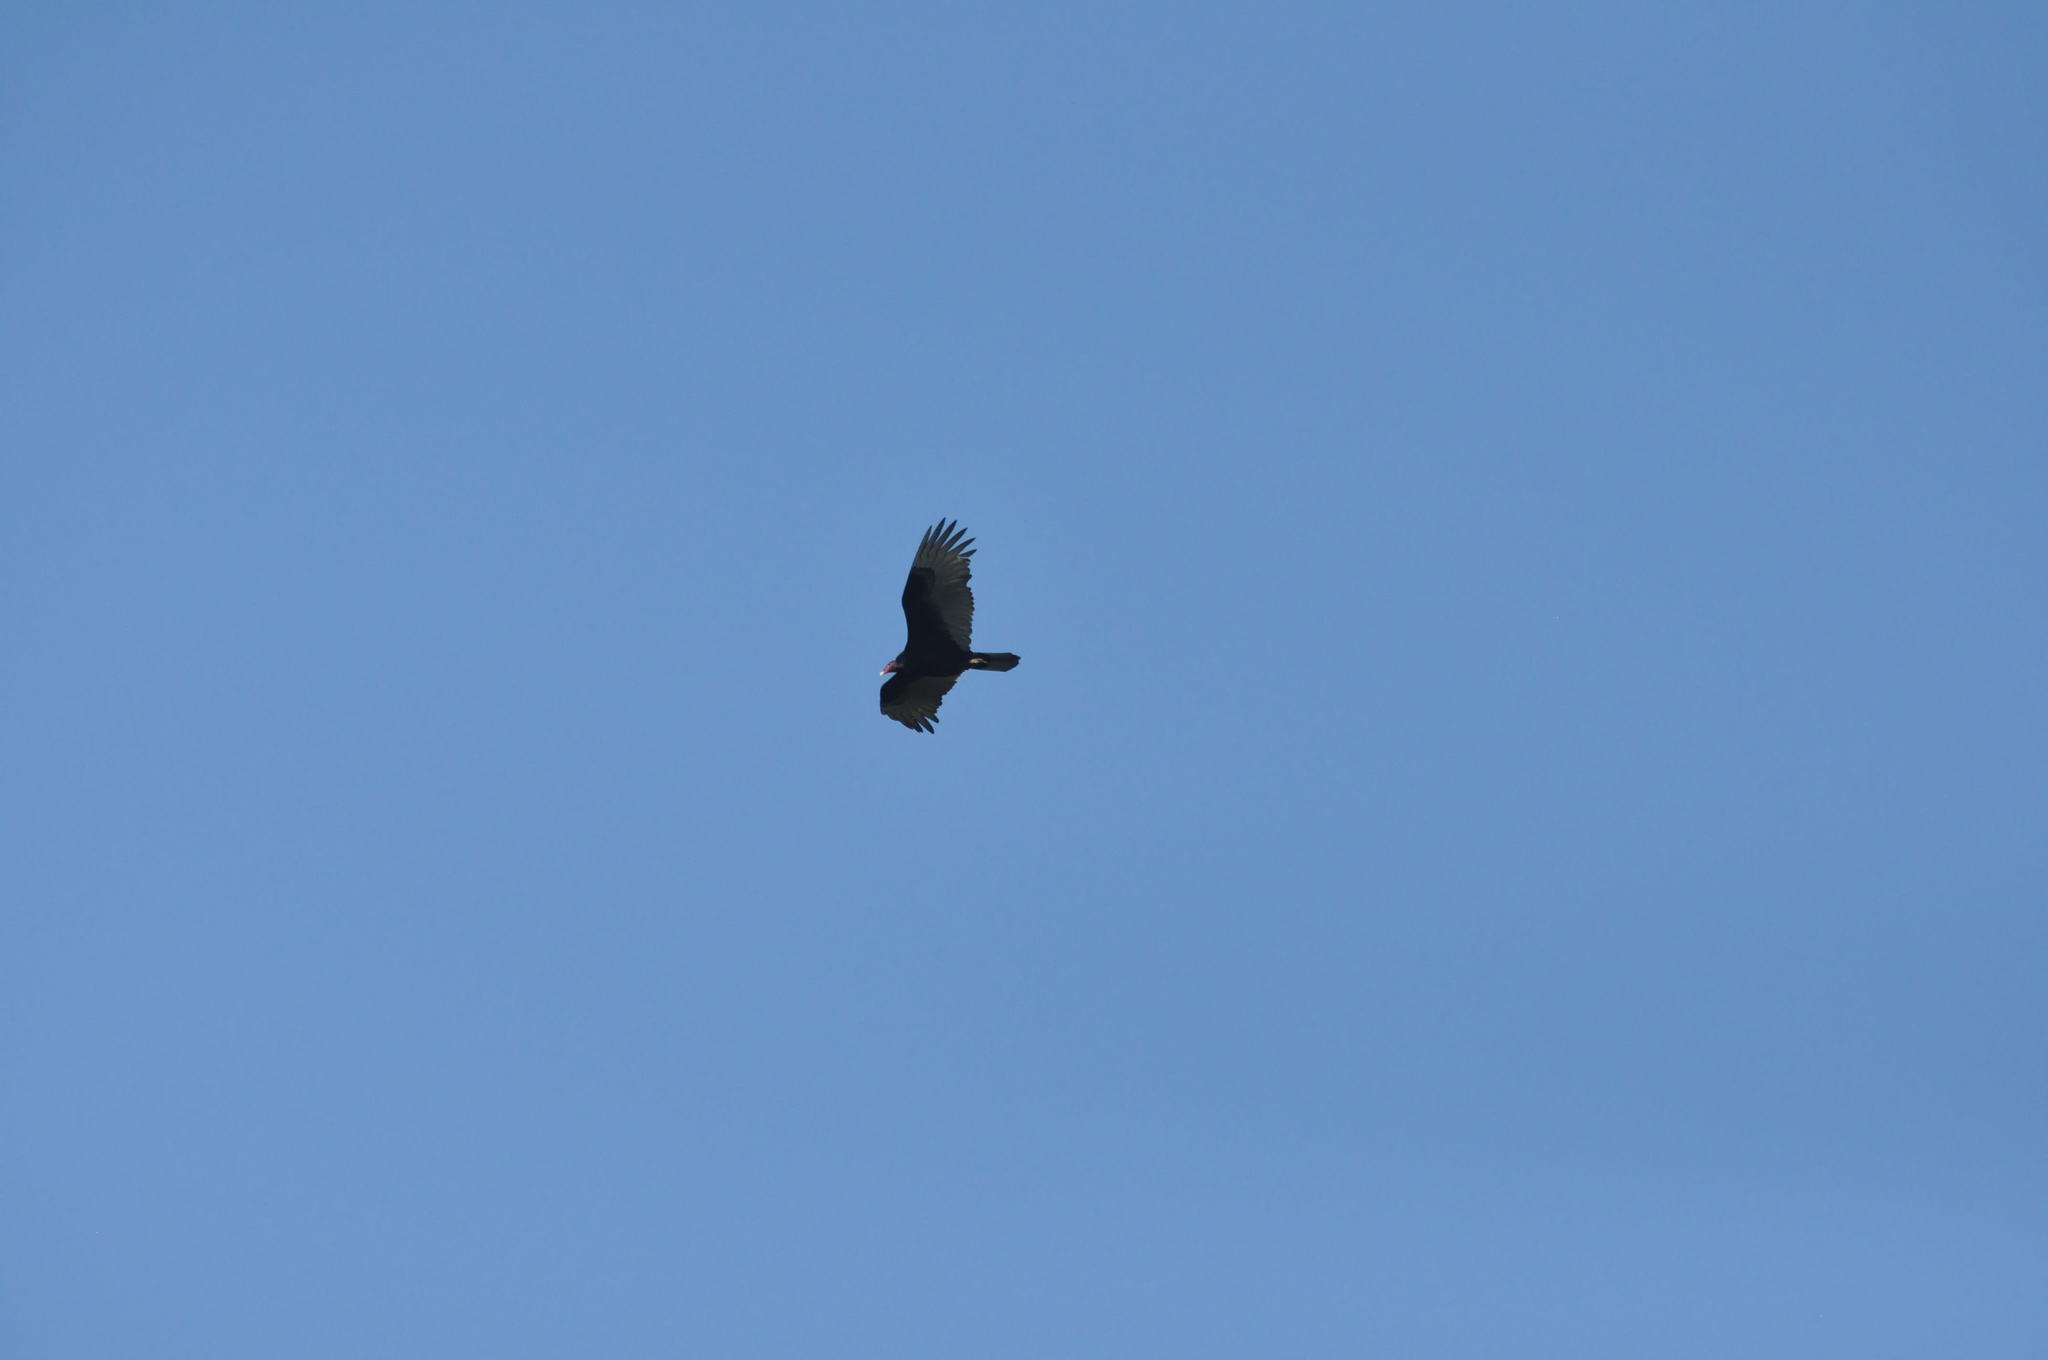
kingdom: Animalia
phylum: Chordata
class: Aves
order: Accipitriformes
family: Cathartidae
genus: Cathartes
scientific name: Cathartes aura
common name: Turkey vulture
